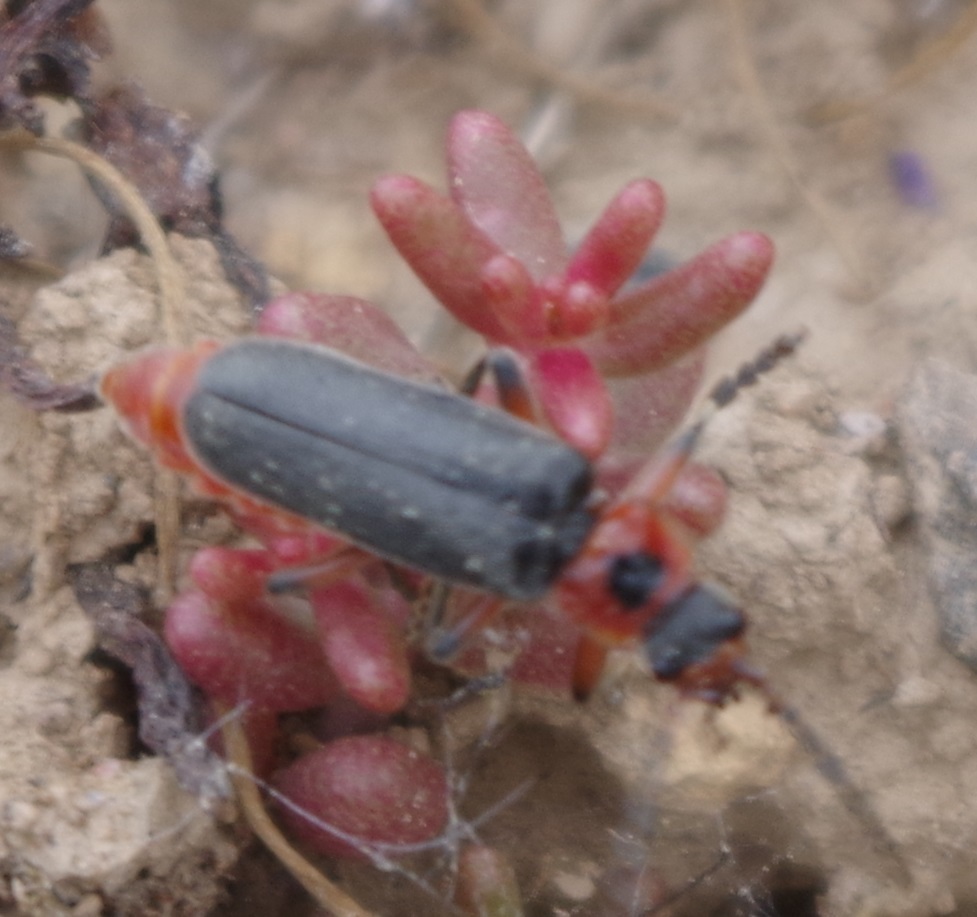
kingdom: Animalia
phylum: Arthropoda
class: Insecta
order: Coleoptera
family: Cantharidae
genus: Cantharis
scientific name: Cantharis rustica
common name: Soldier beetle
